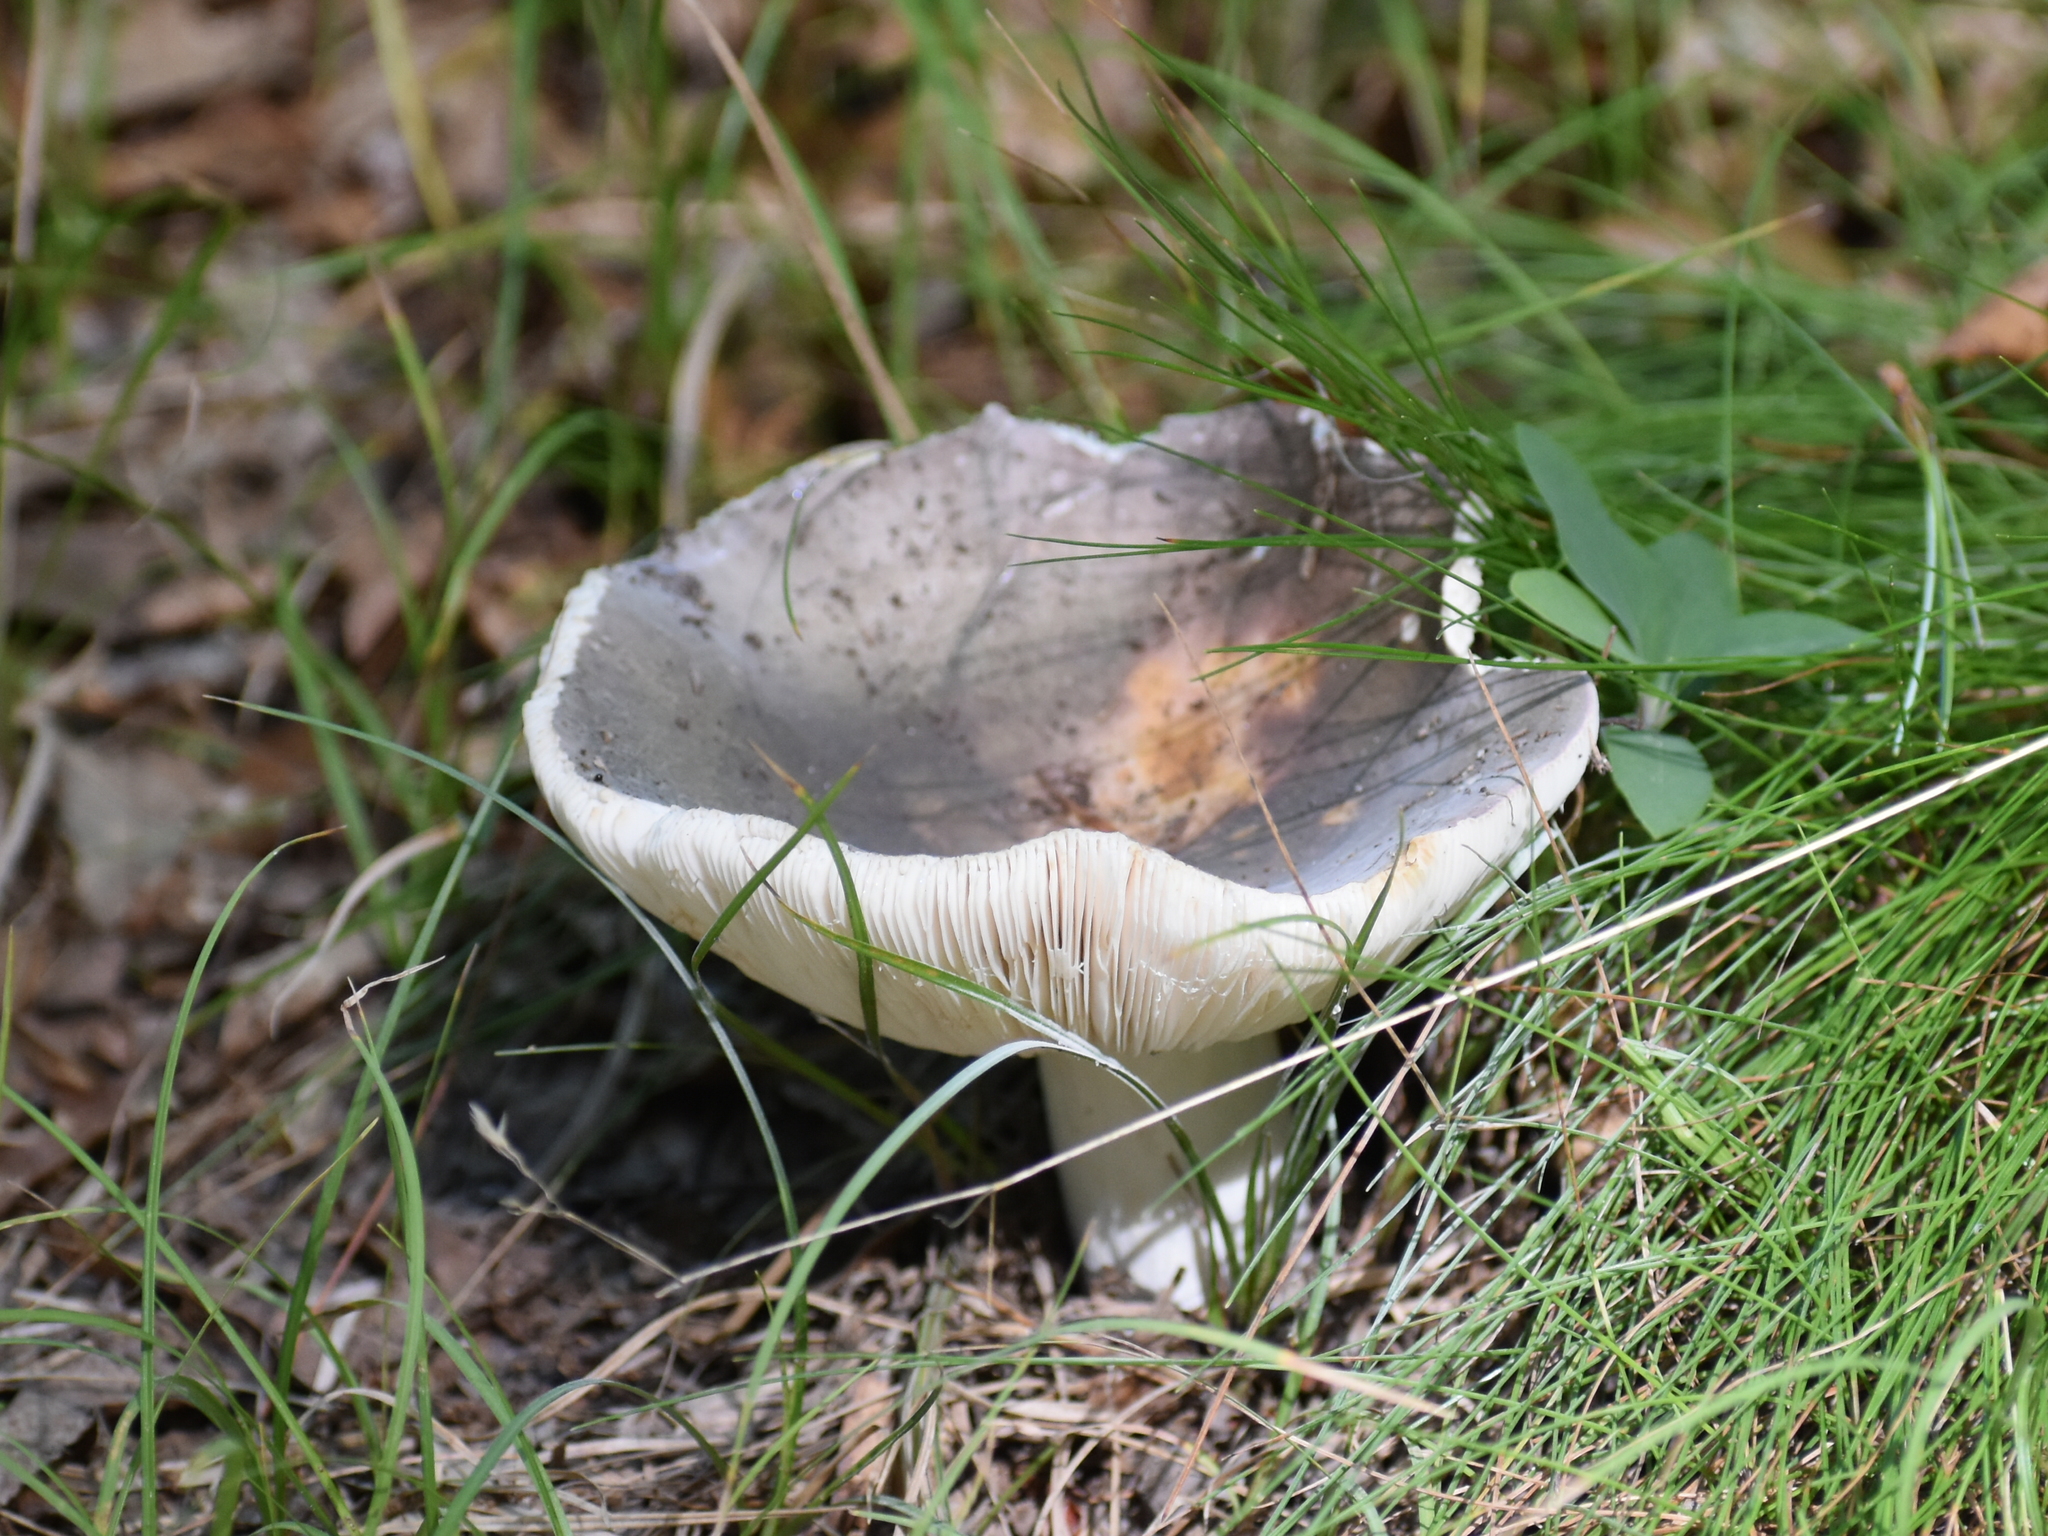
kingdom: Fungi
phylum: Basidiomycota
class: Agaricomycetes
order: Russulales
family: Russulaceae
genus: Russula
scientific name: Russula cyanoxantha
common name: Charcoal burner
